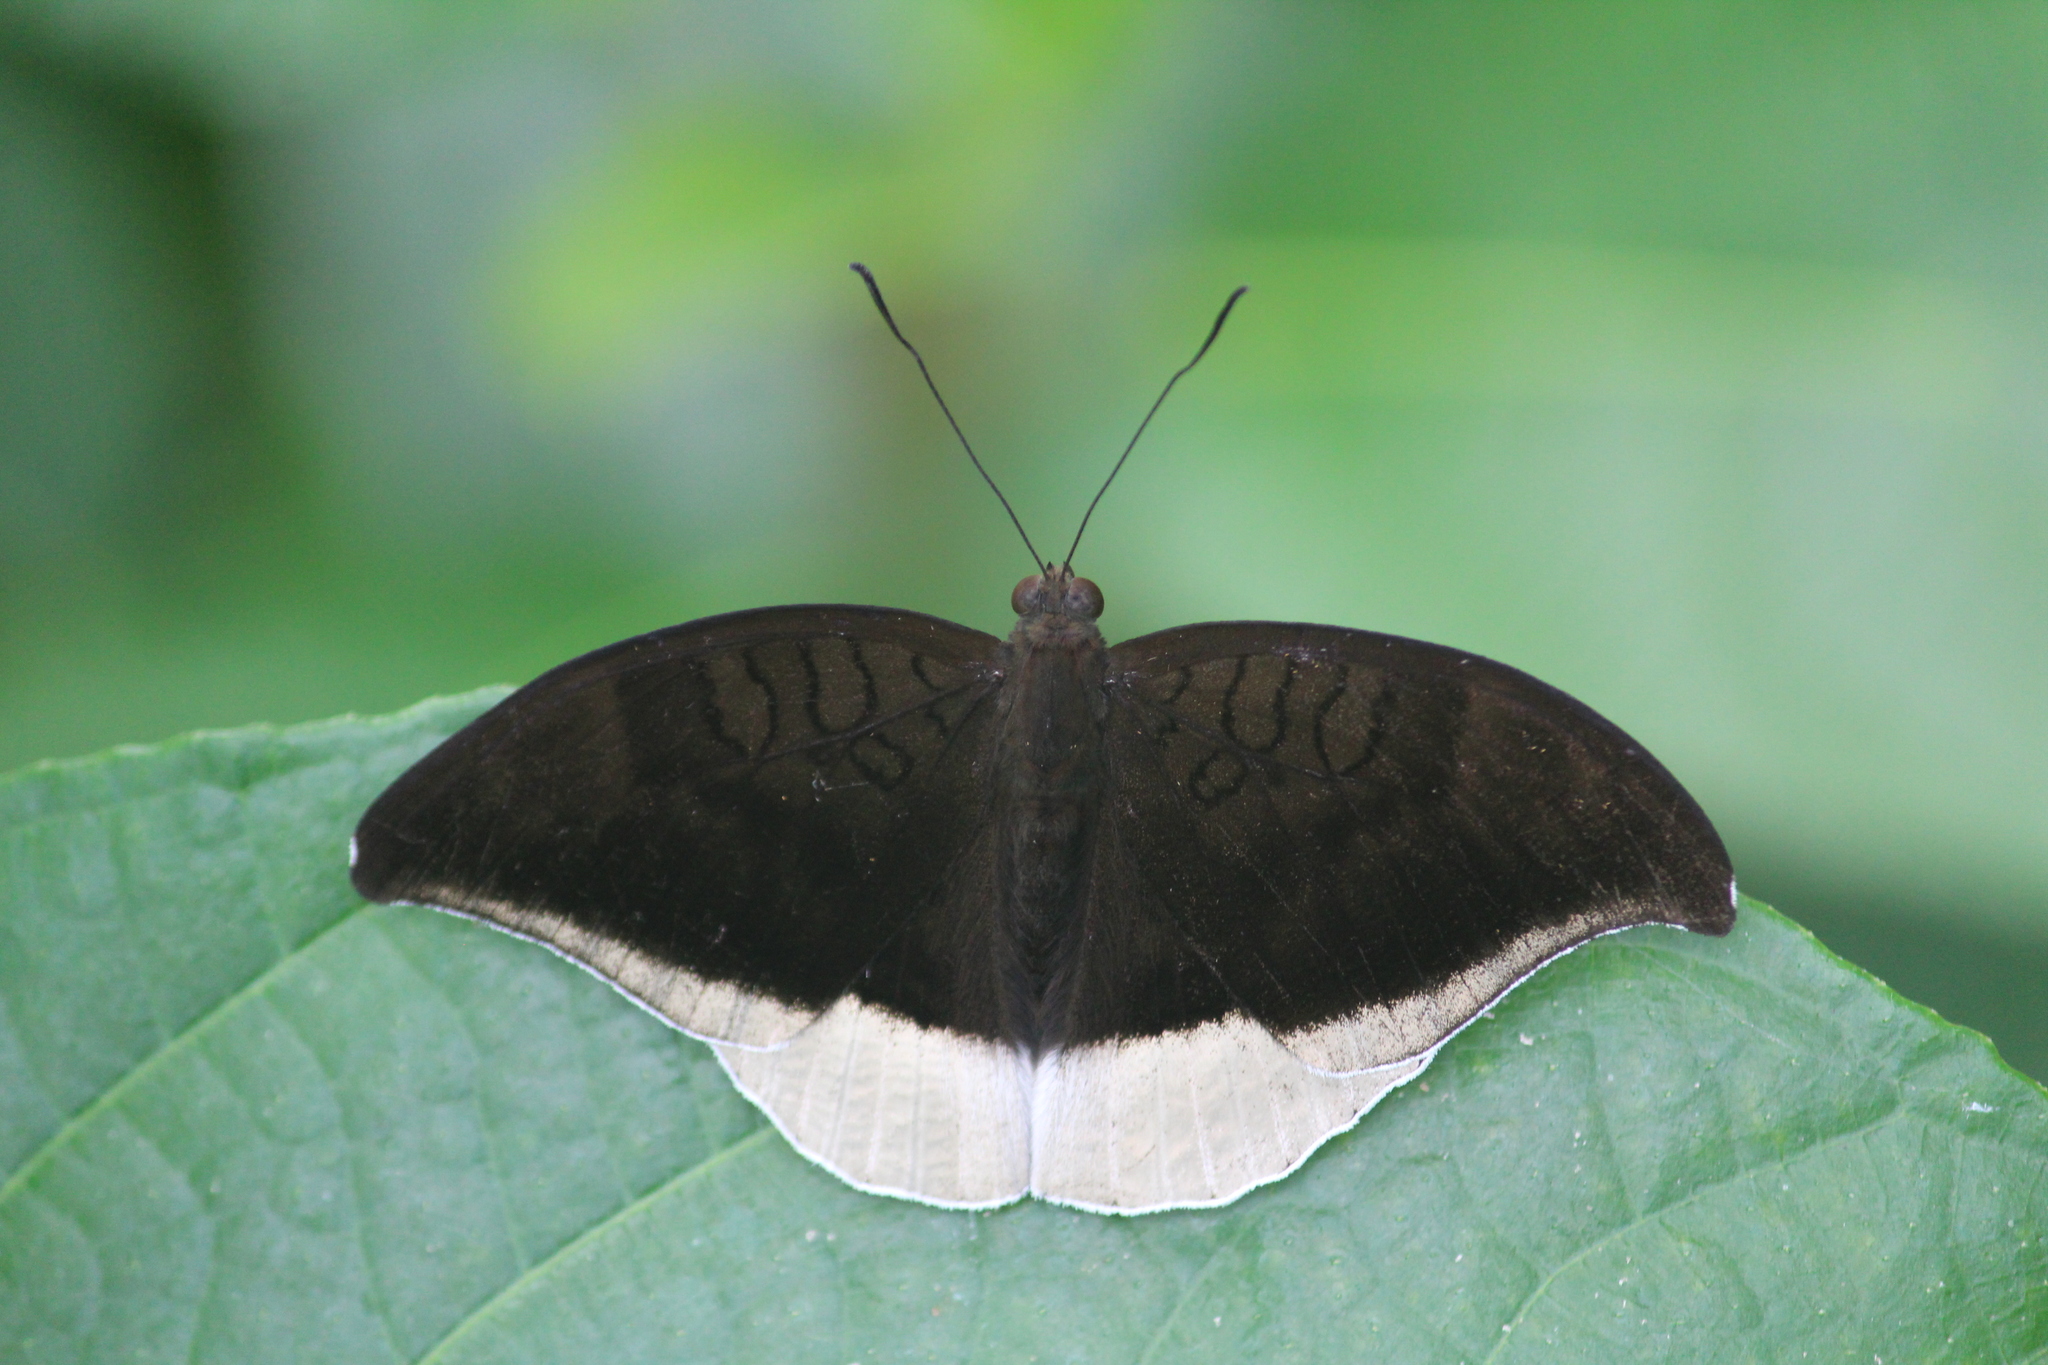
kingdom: Animalia
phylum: Arthropoda
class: Insecta
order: Lepidoptera
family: Nymphalidae
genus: Tanaecia
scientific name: Tanaecia lepidea
